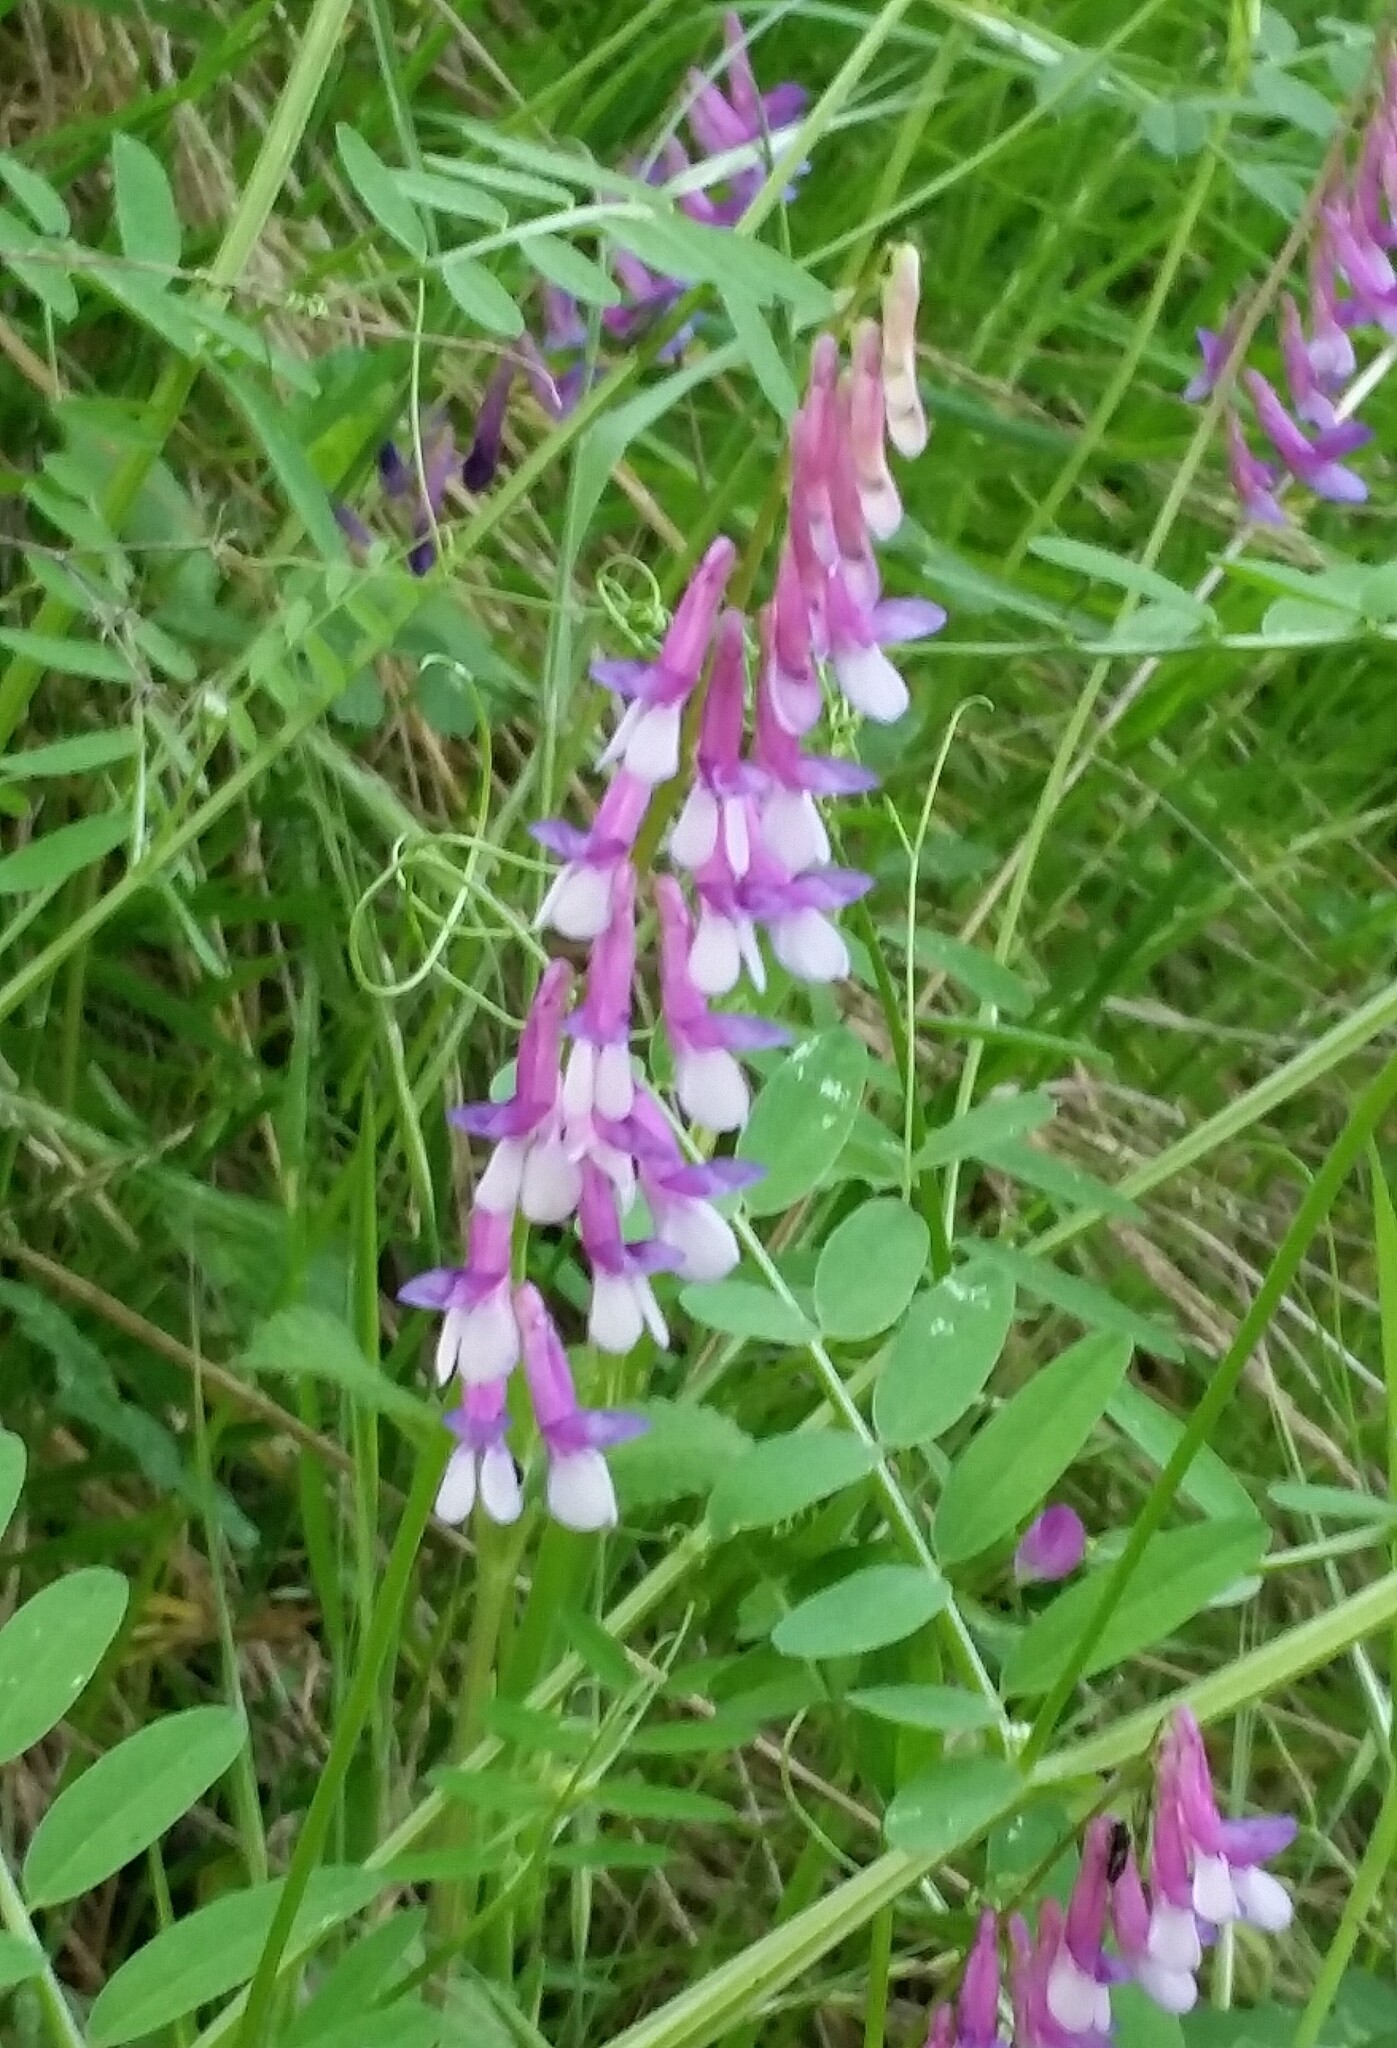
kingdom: Plantae
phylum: Tracheophyta
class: Magnoliopsida
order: Fabales
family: Fabaceae
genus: Vicia
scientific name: Vicia villosa
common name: Fodder vetch
